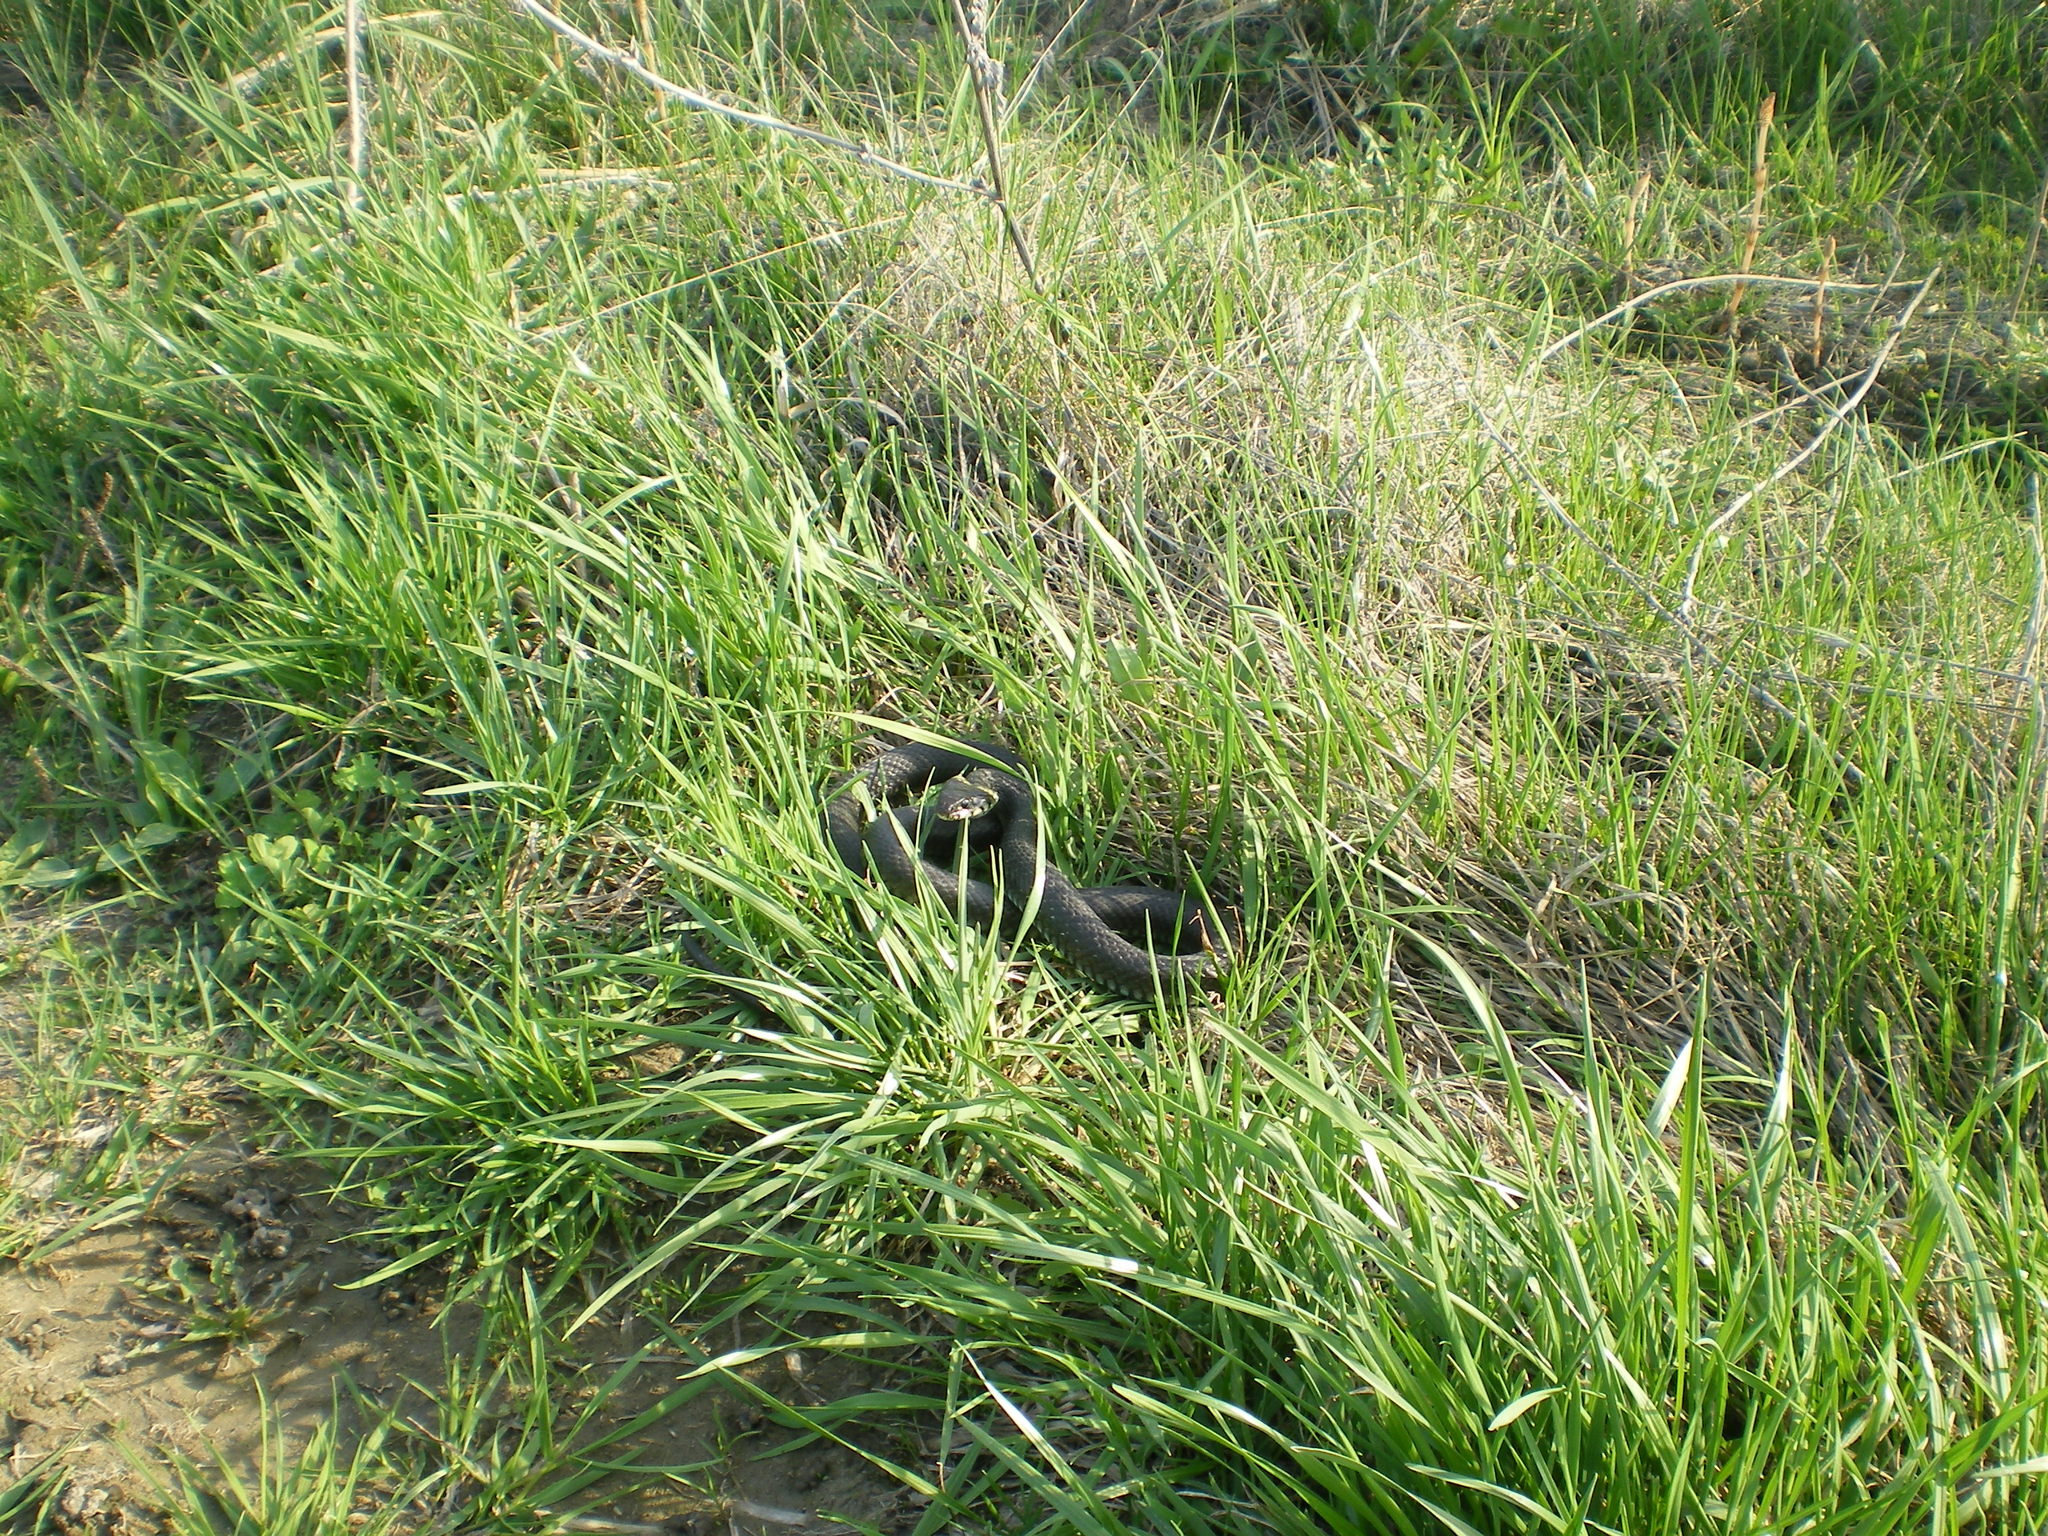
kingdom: Animalia
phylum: Chordata
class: Squamata
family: Colubridae
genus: Natrix
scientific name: Natrix natrix
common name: Grass snake
